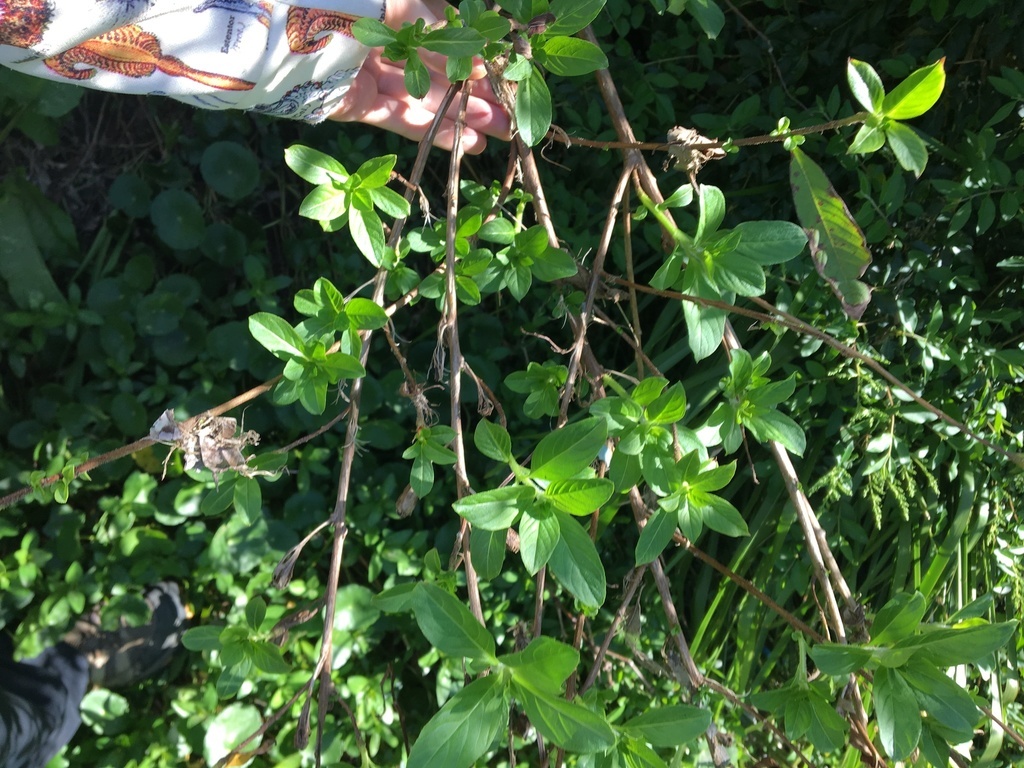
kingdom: Plantae
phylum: Tracheophyta
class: Magnoliopsida
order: Myrtales
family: Onagraceae
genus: Ludwigia
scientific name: Ludwigia peruviana
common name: Peruvian primrose-willow
